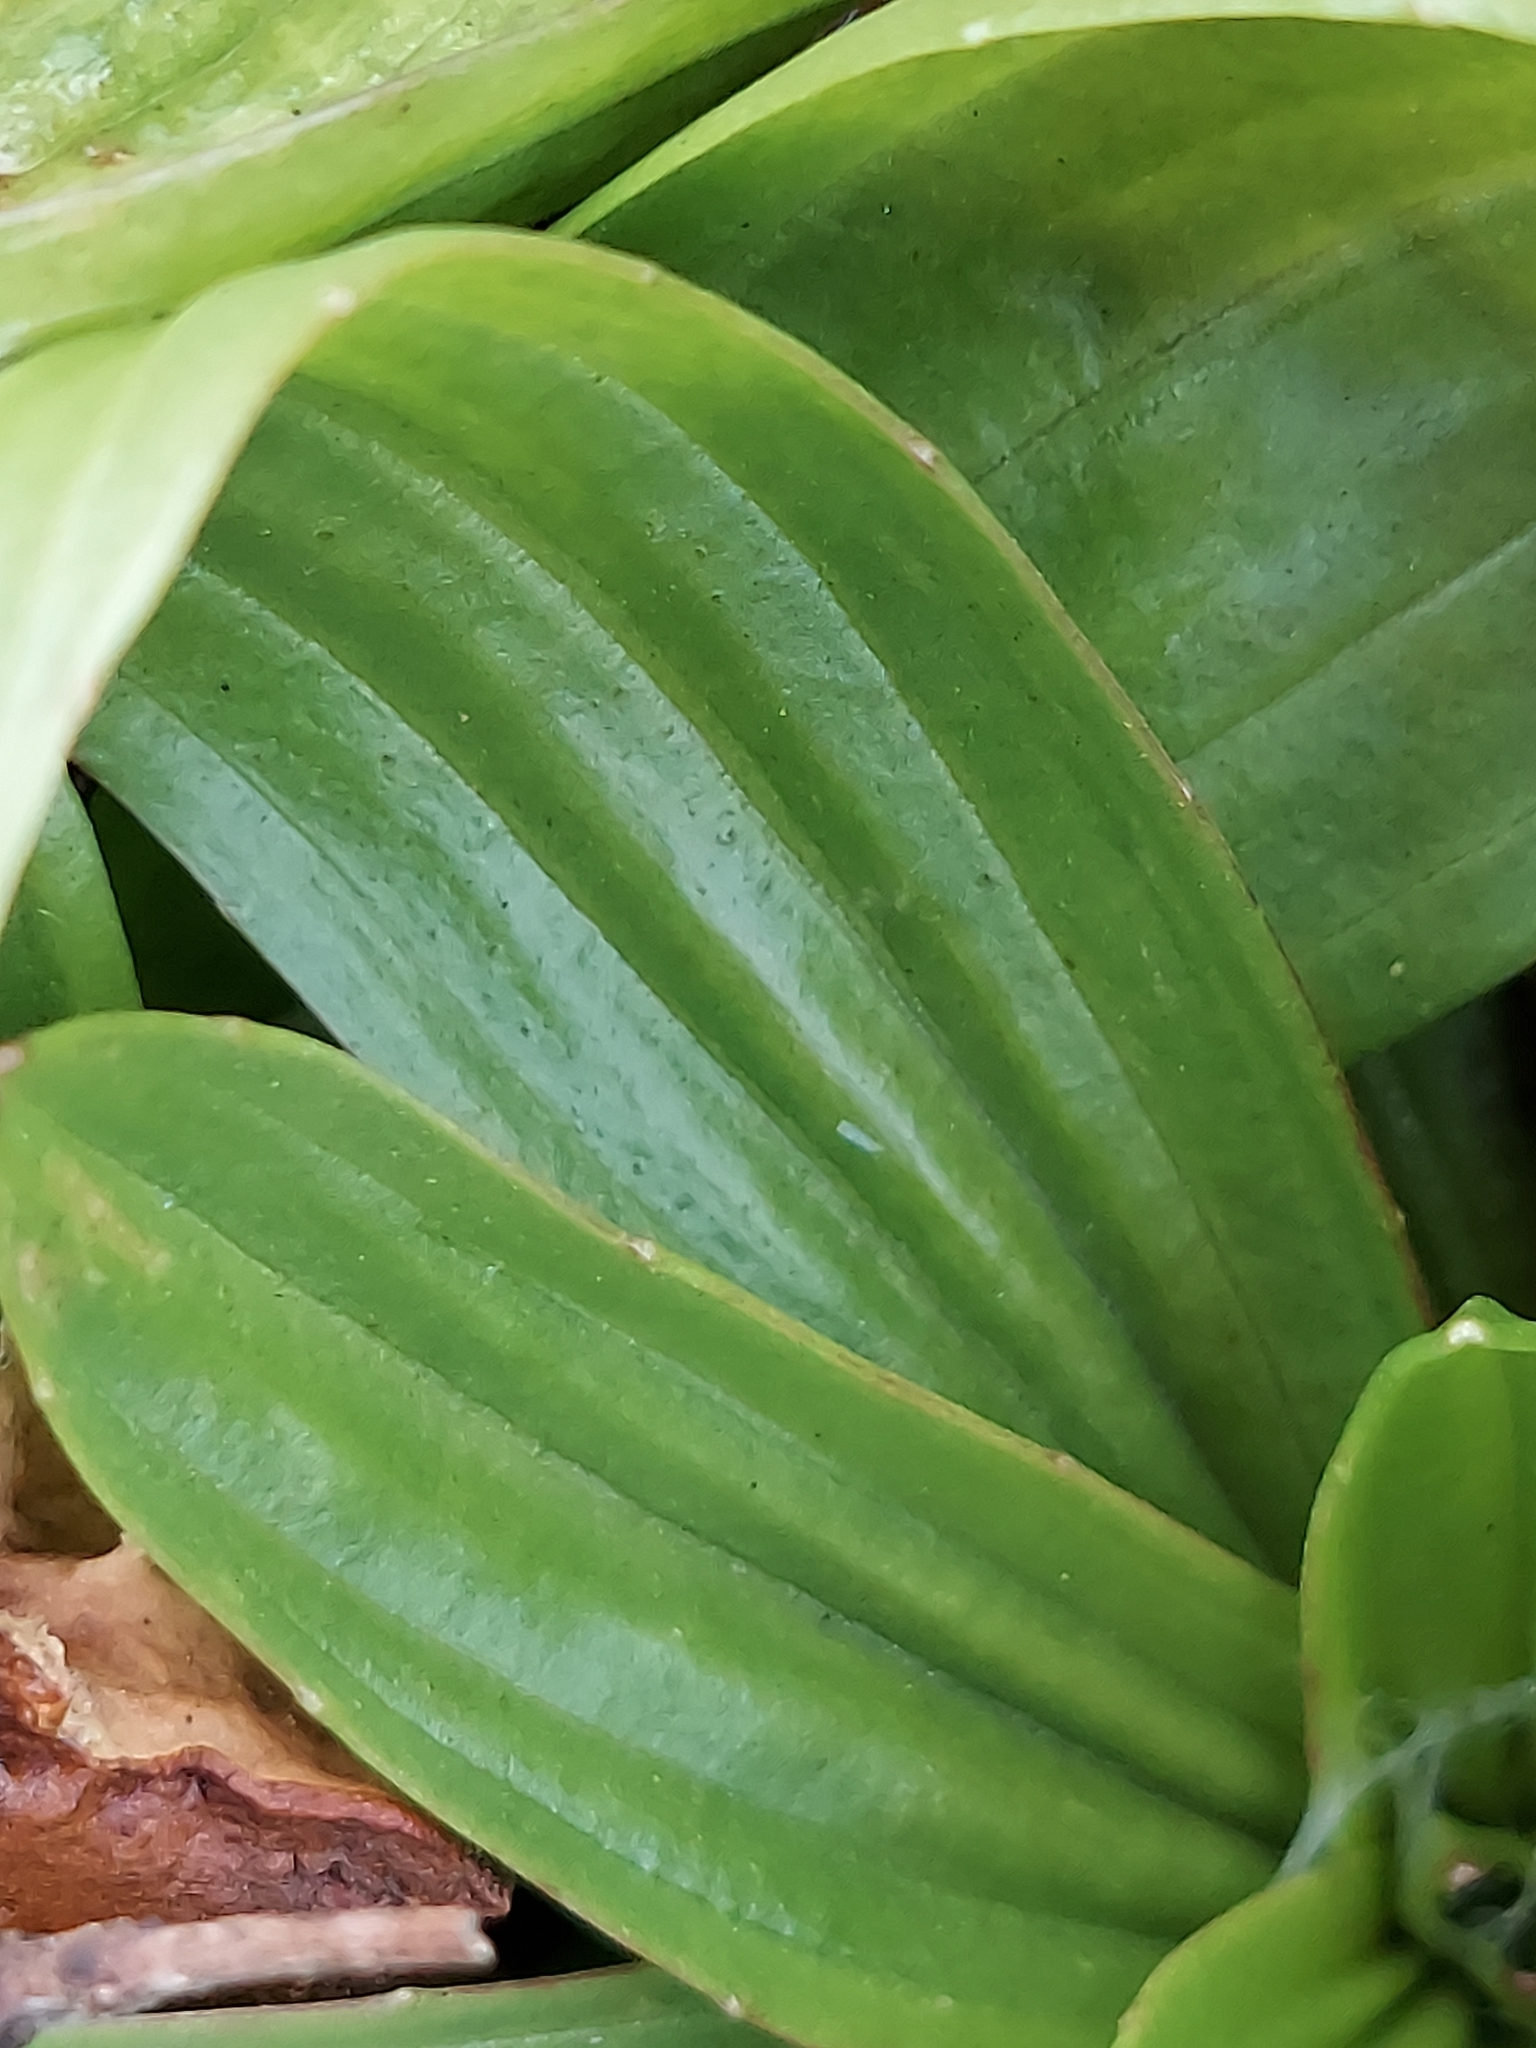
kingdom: Plantae
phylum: Tracheophyta
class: Magnoliopsida
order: Lamiales
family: Plantaginaceae
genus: Plantago
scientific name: Plantago lanceolata
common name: Ribwort plantain
